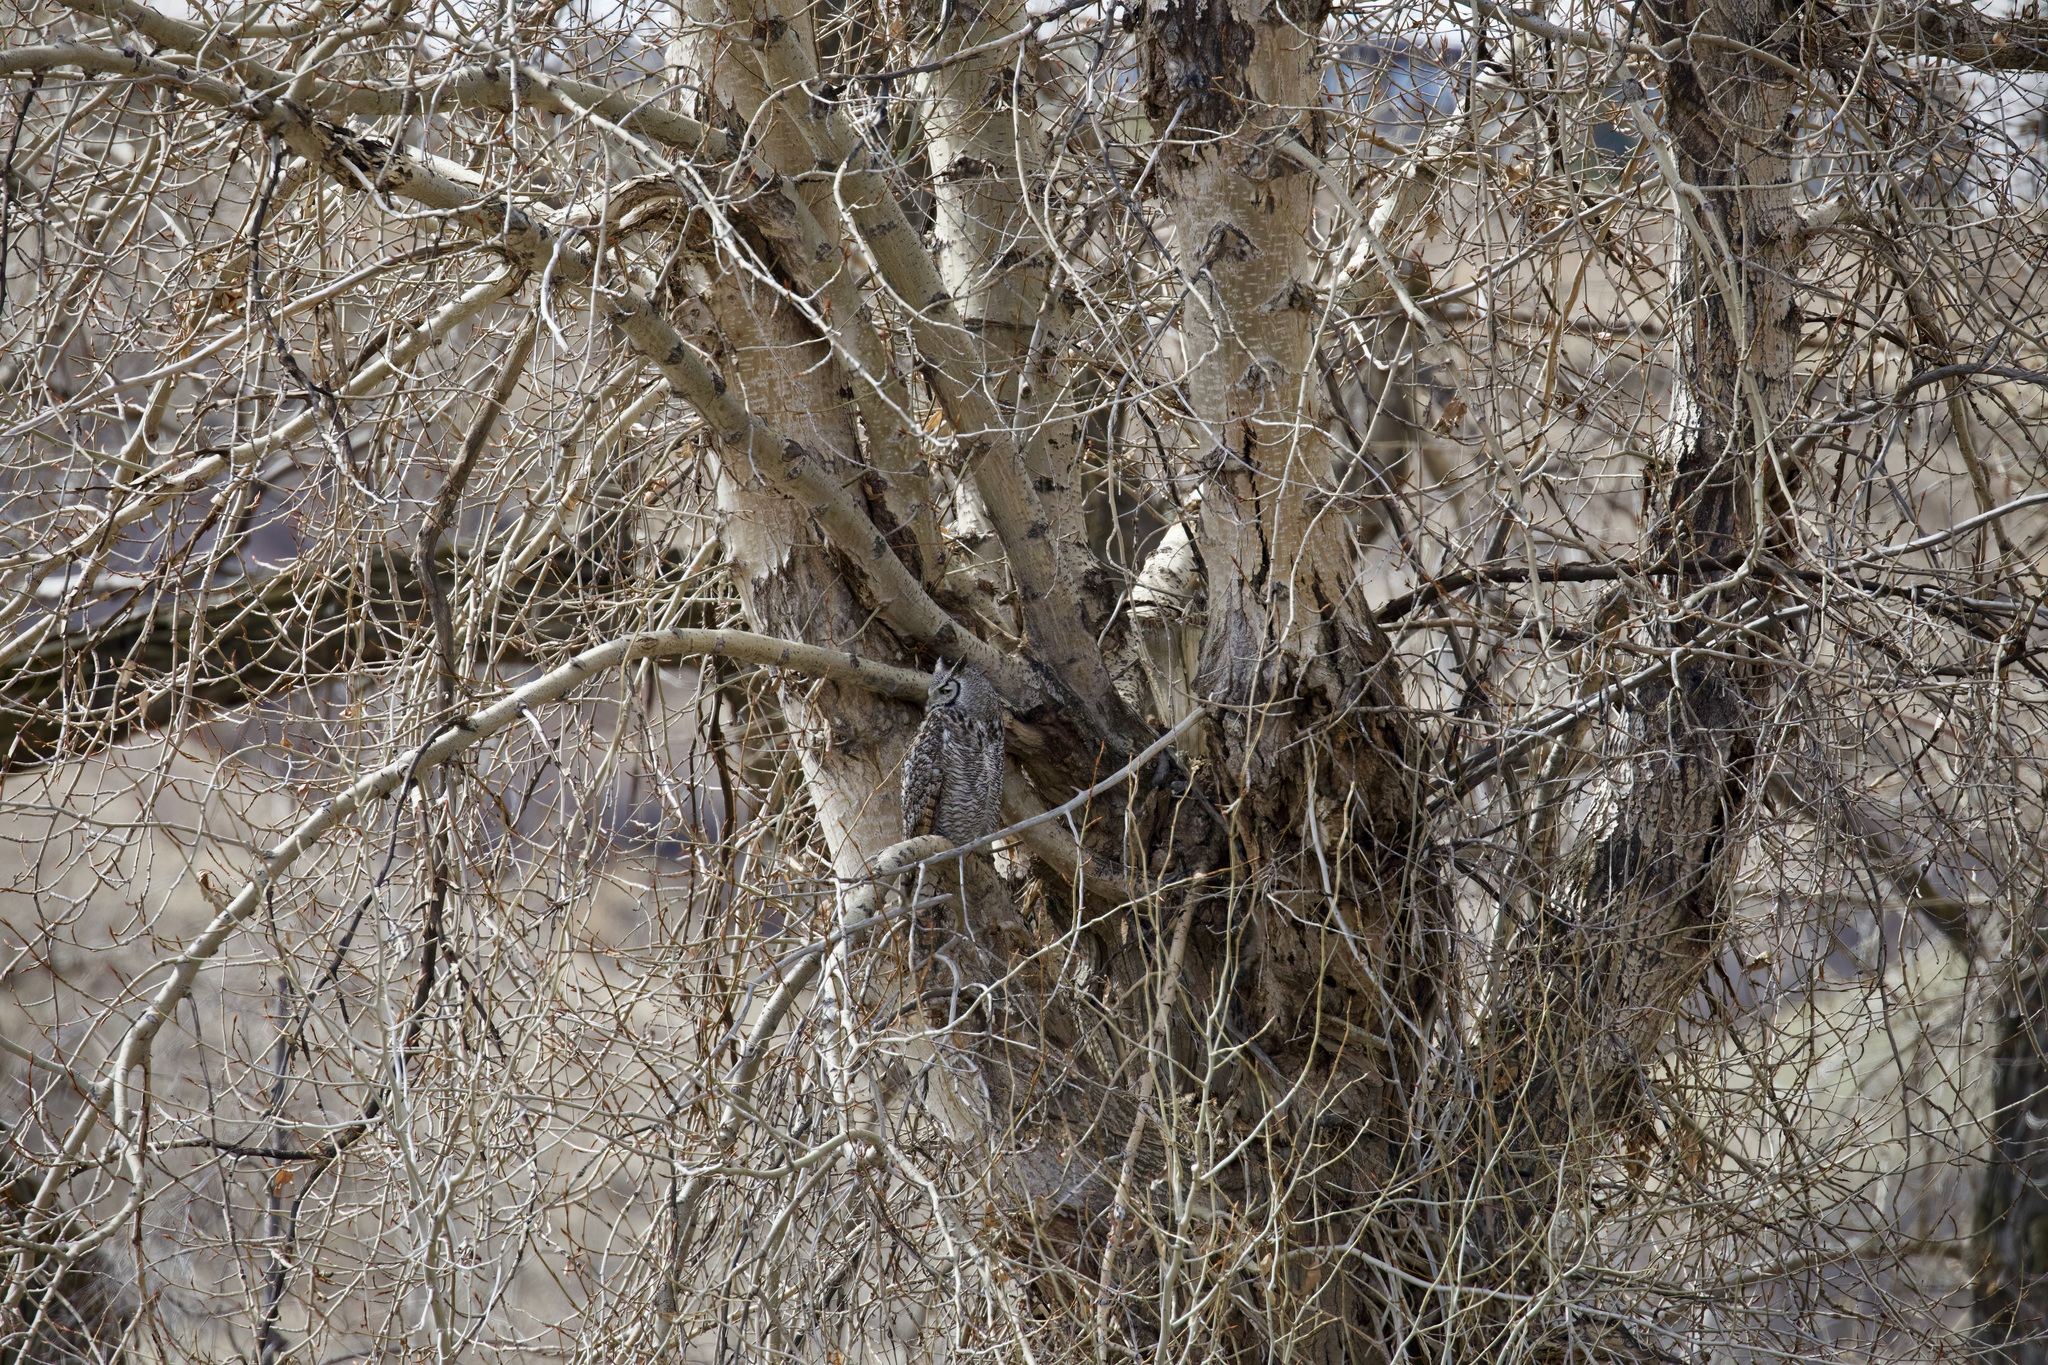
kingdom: Animalia
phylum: Chordata
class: Aves
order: Strigiformes
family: Strigidae
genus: Bubo
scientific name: Bubo virginianus
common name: Great horned owl
